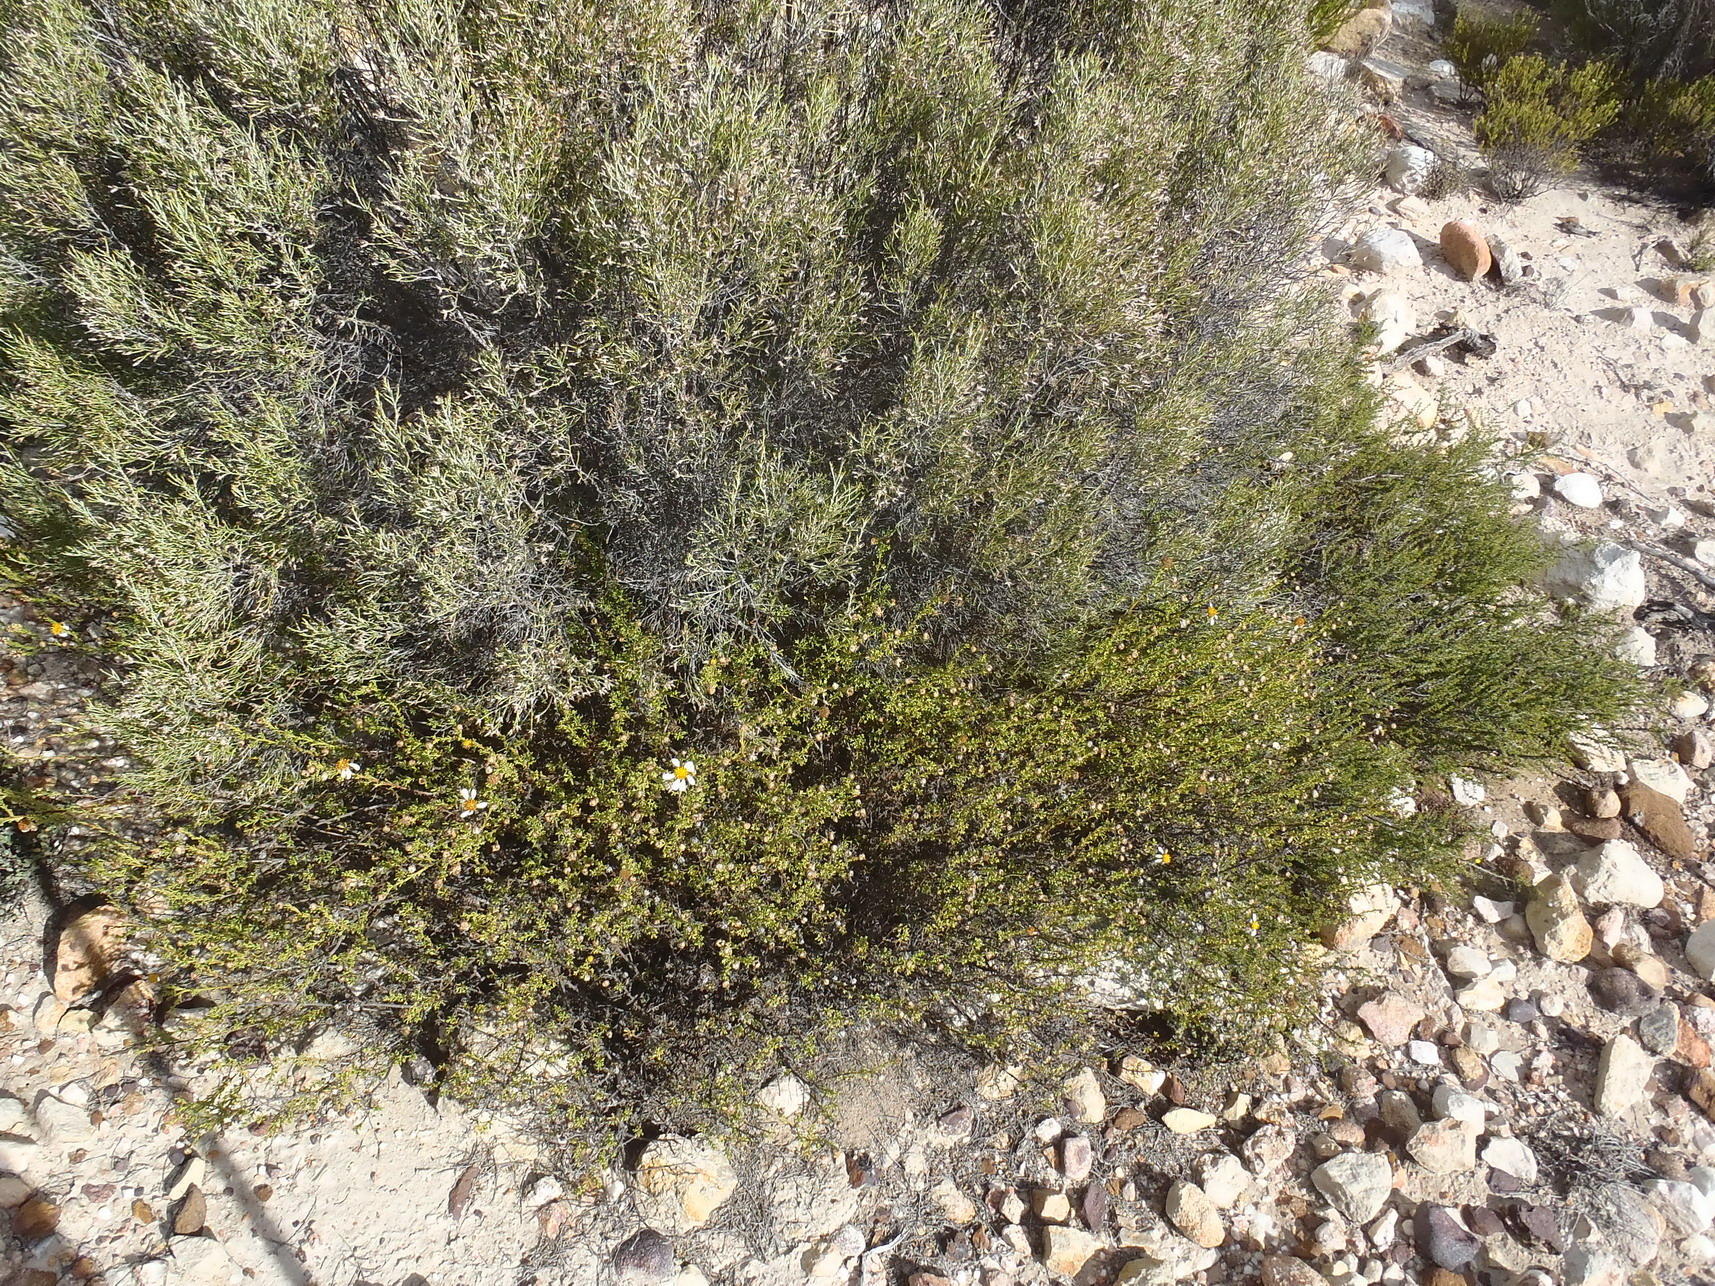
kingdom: Plantae
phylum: Tracheophyta
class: Magnoliopsida
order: Asterales
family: Asteraceae
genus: Cymbopappus
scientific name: Cymbopappus adenosolen
